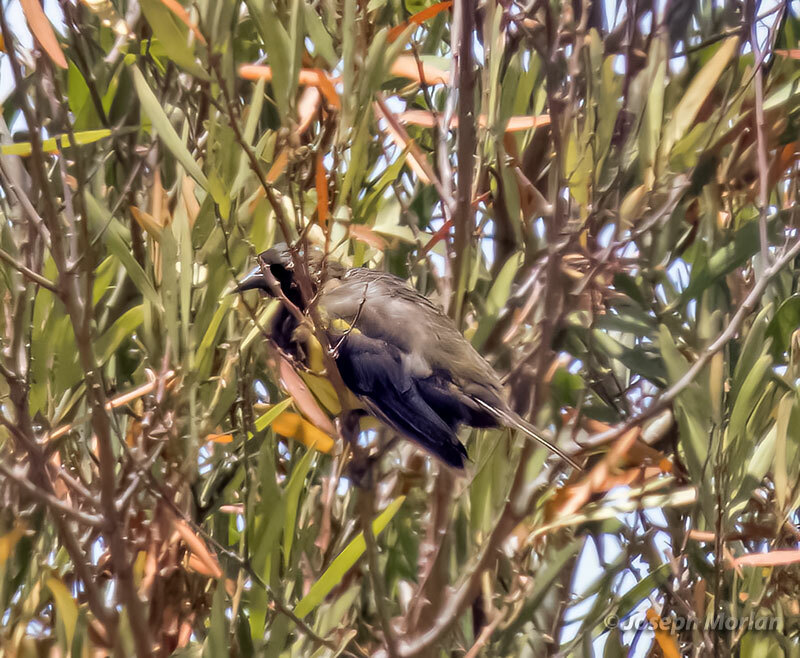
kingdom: Animalia
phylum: Chordata
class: Aves
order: Passeriformes
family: Icteridae
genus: Pseudoleistes
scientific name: Pseudoleistes virescens
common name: Brown-and-yellow marshbird
